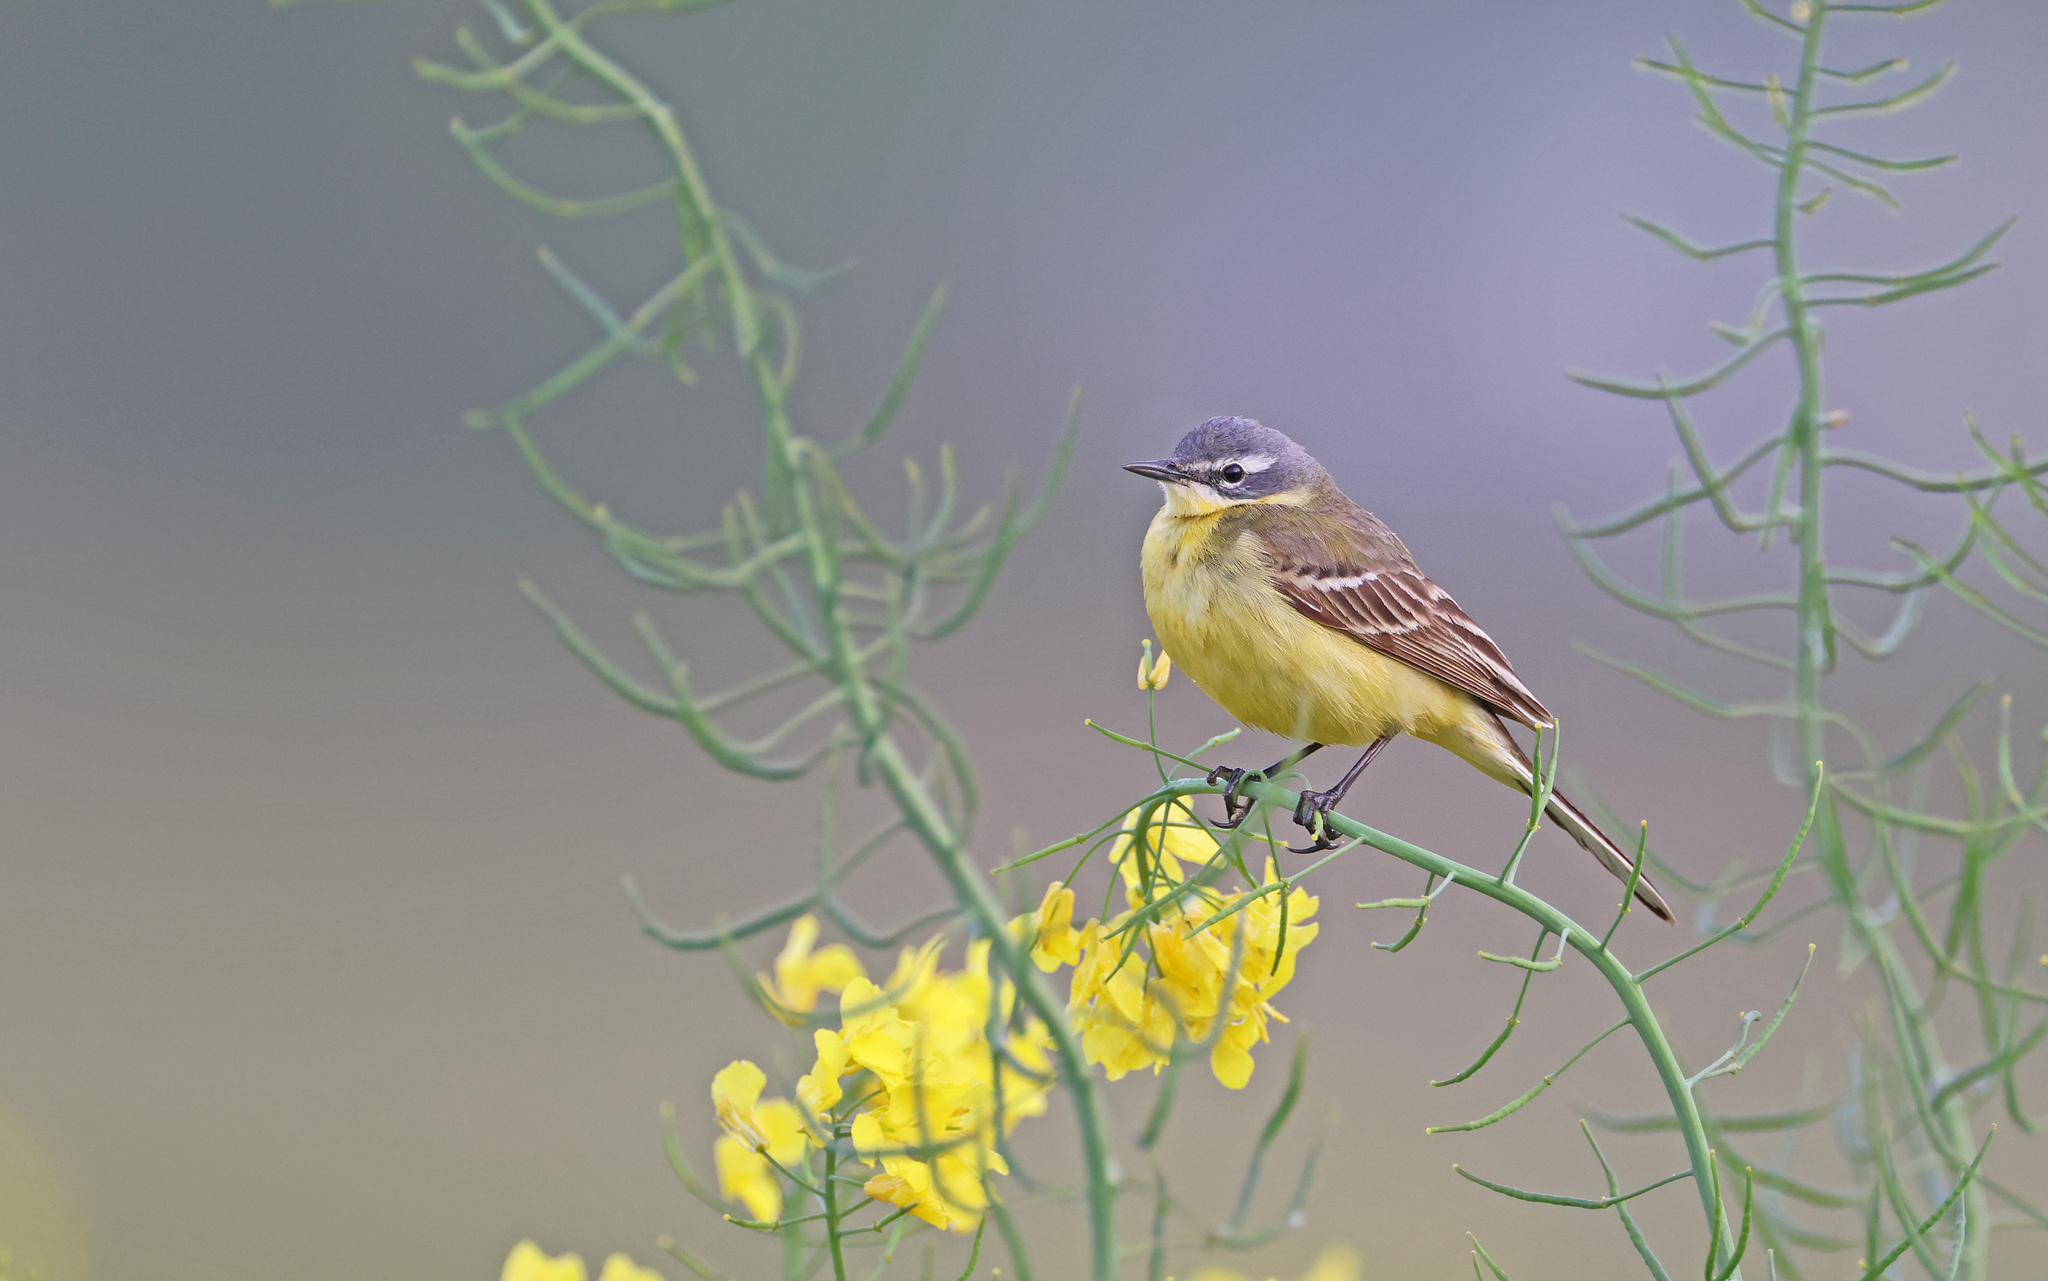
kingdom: Animalia
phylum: Chordata
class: Aves
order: Passeriformes
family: Motacillidae
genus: Motacilla
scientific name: Motacilla flava
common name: Western yellow wagtail
